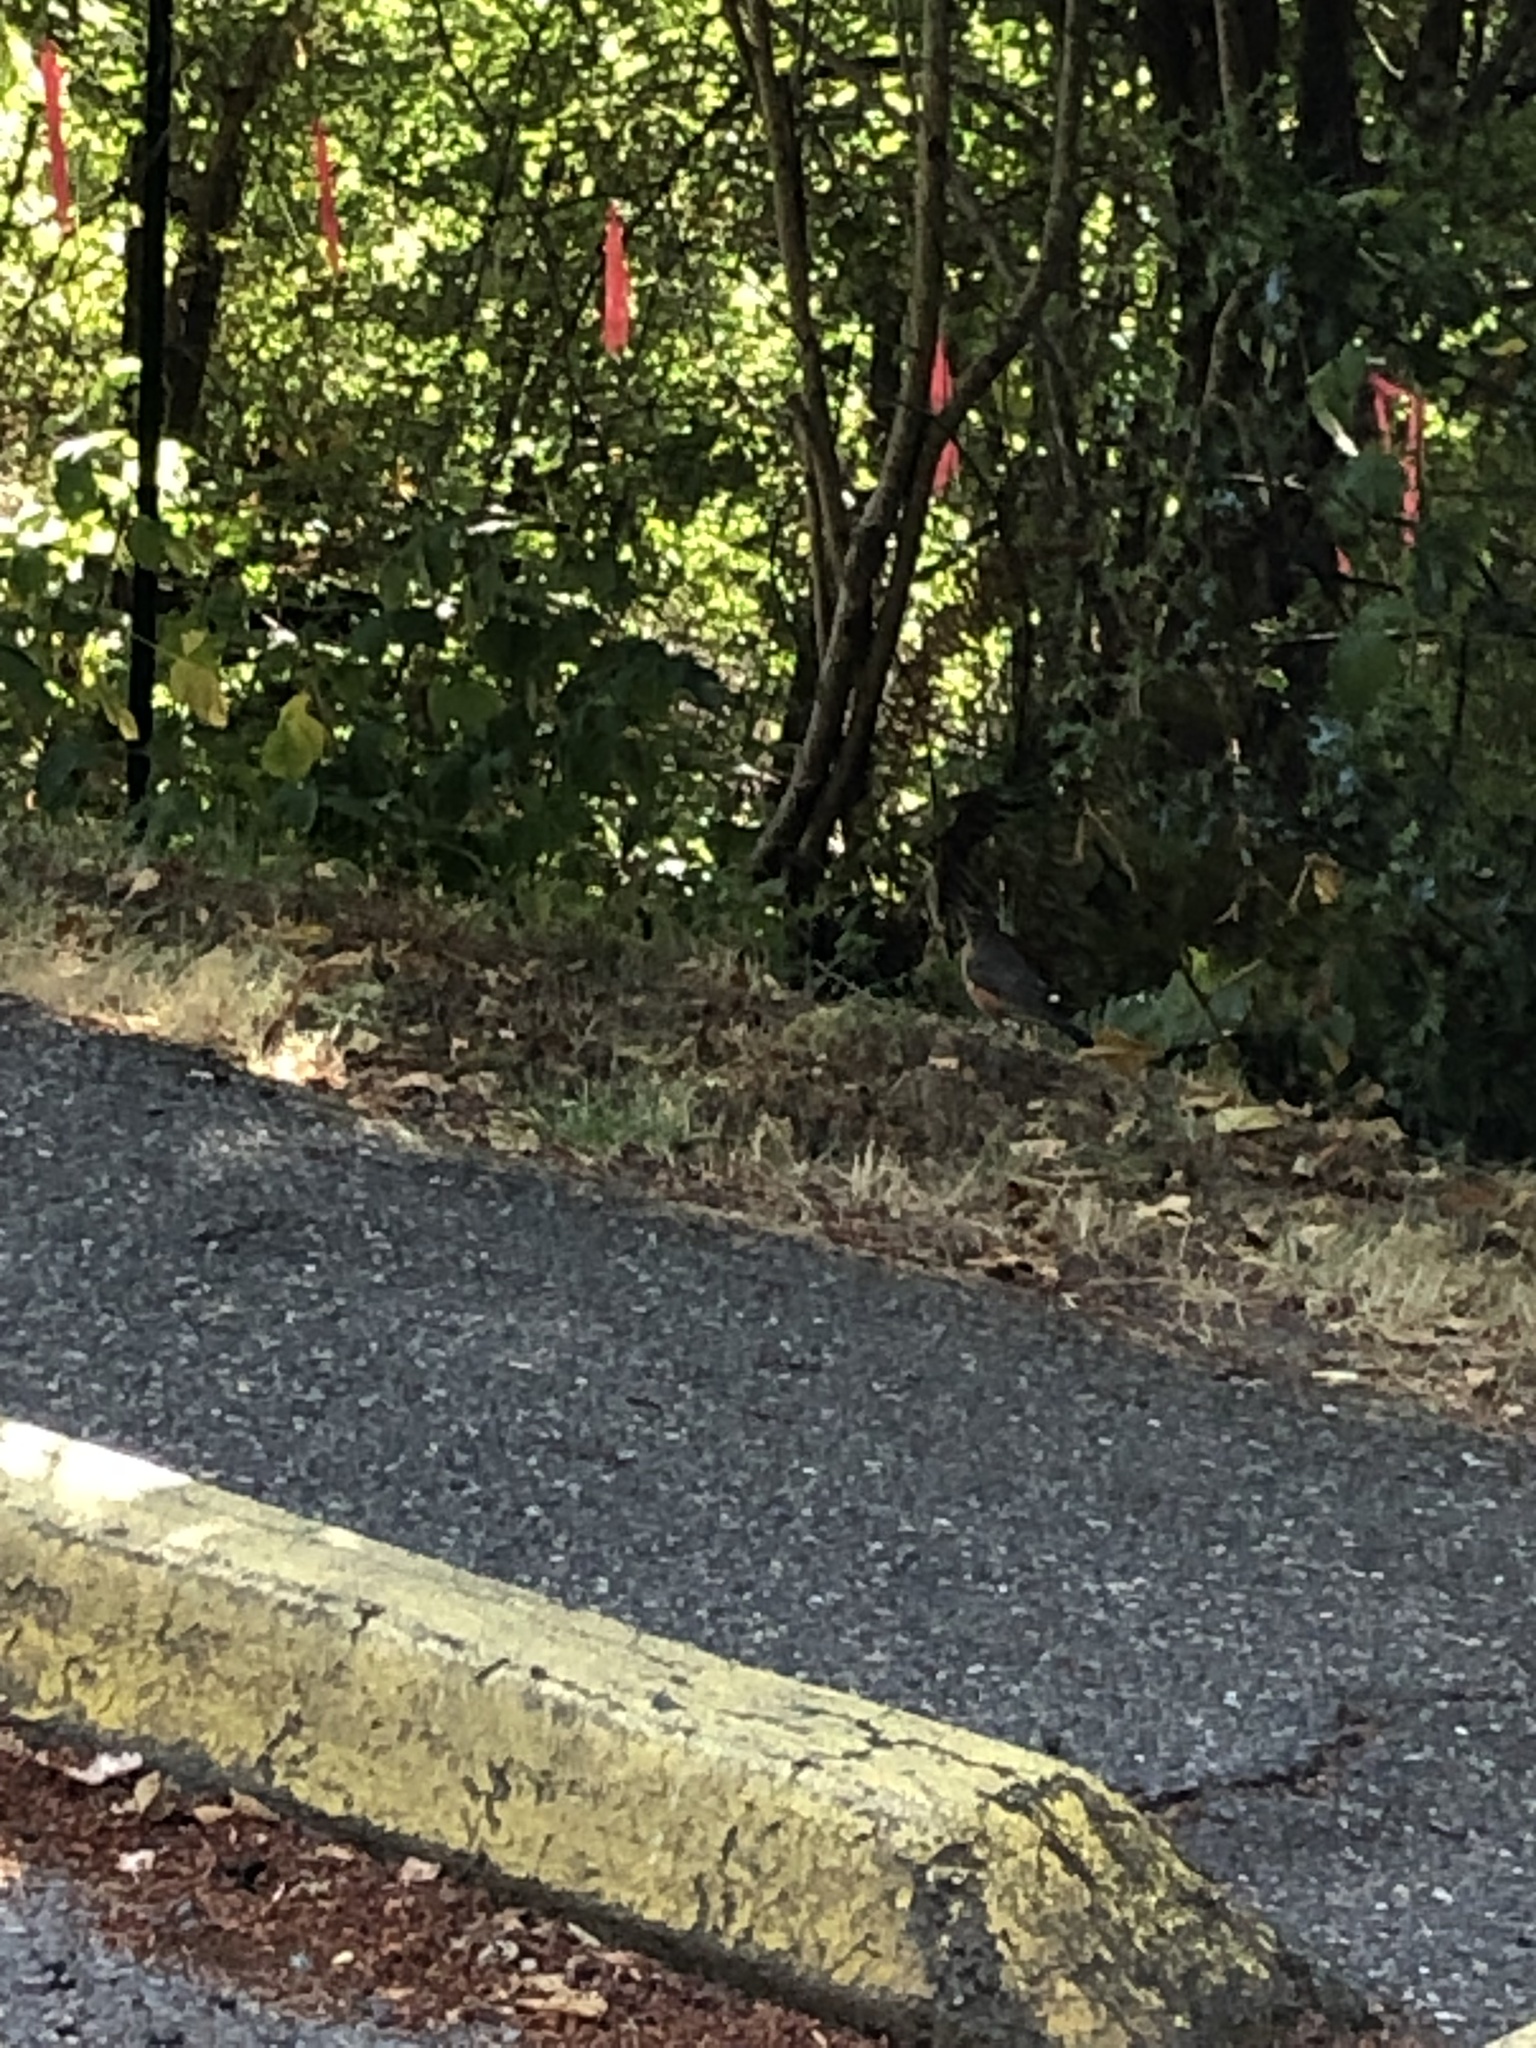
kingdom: Animalia
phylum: Chordata
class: Aves
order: Passeriformes
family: Turdidae
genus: Turdus
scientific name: Turdus migratorius
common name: American robin
